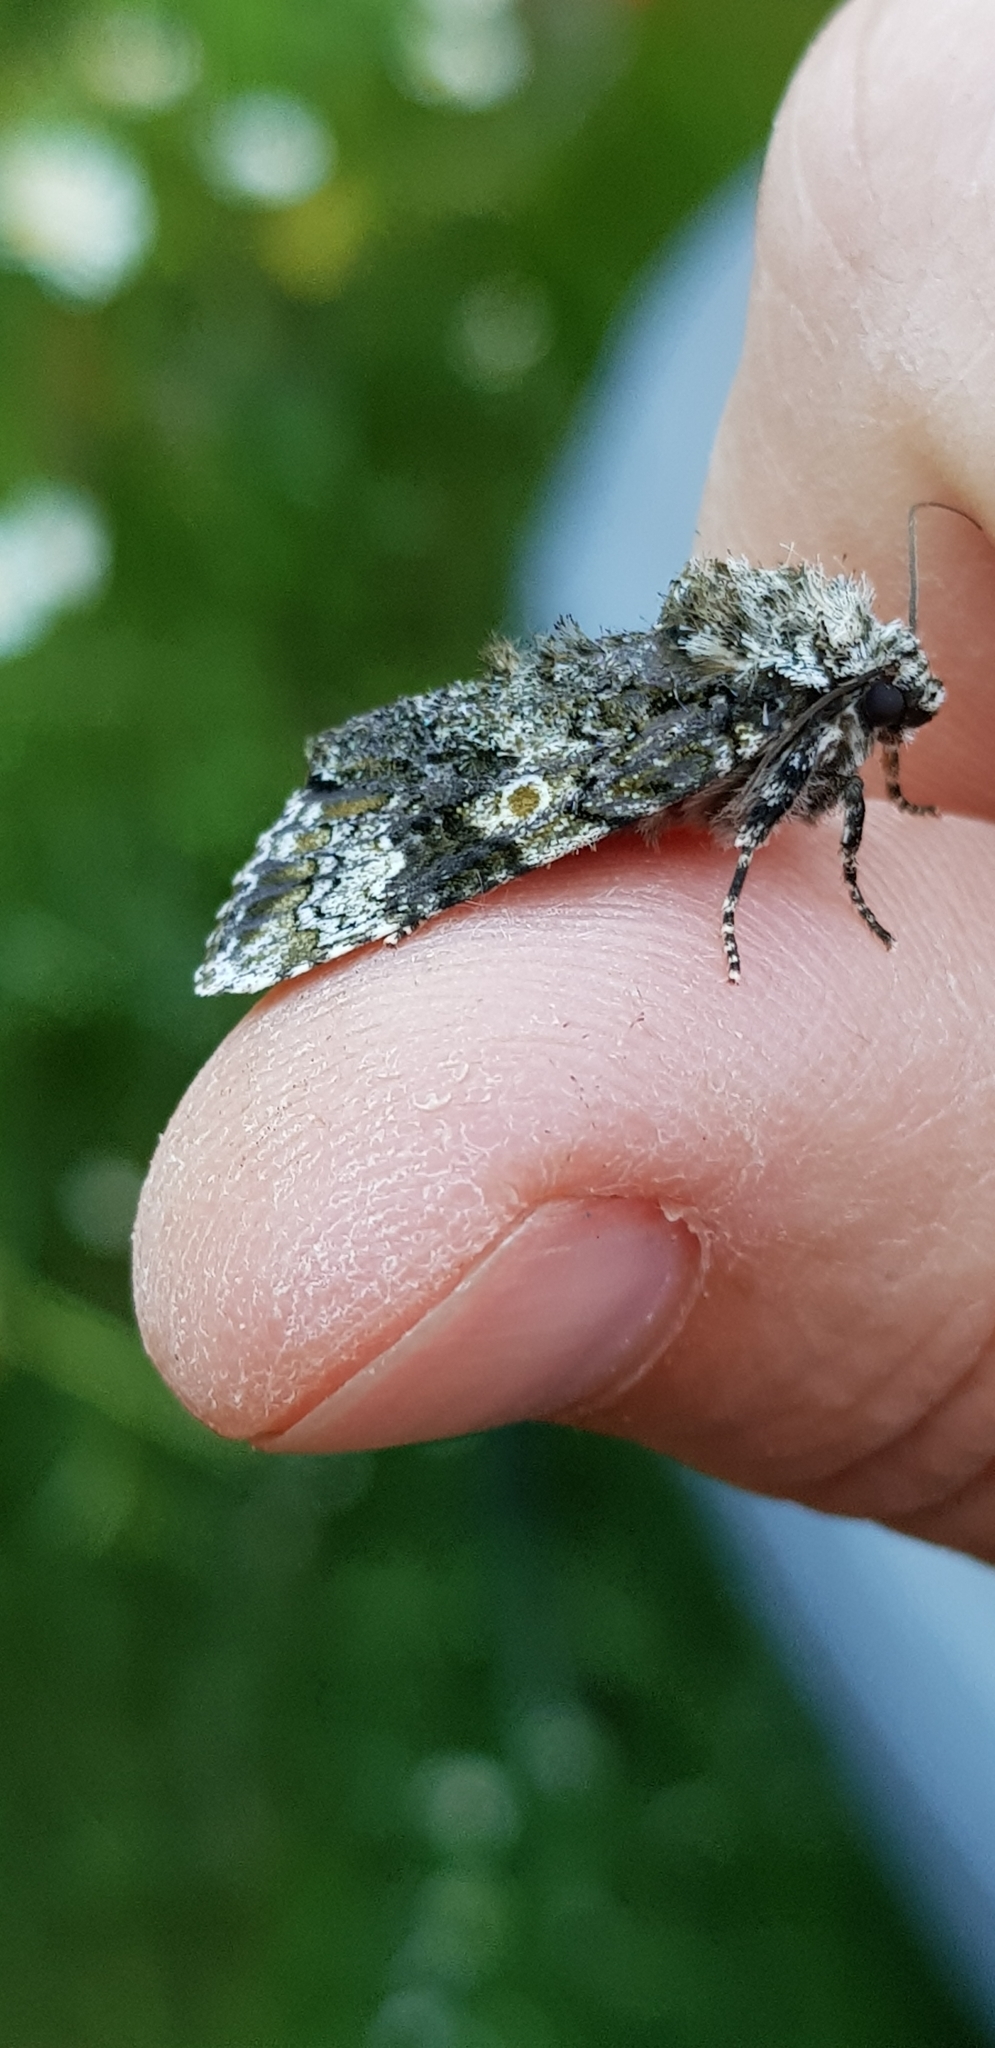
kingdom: Animalia
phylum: Arthropoda
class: Insecta
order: Lepidoptera
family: Noctuidae
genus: Craniophora
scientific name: Craniophora ligustri
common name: Coronet
